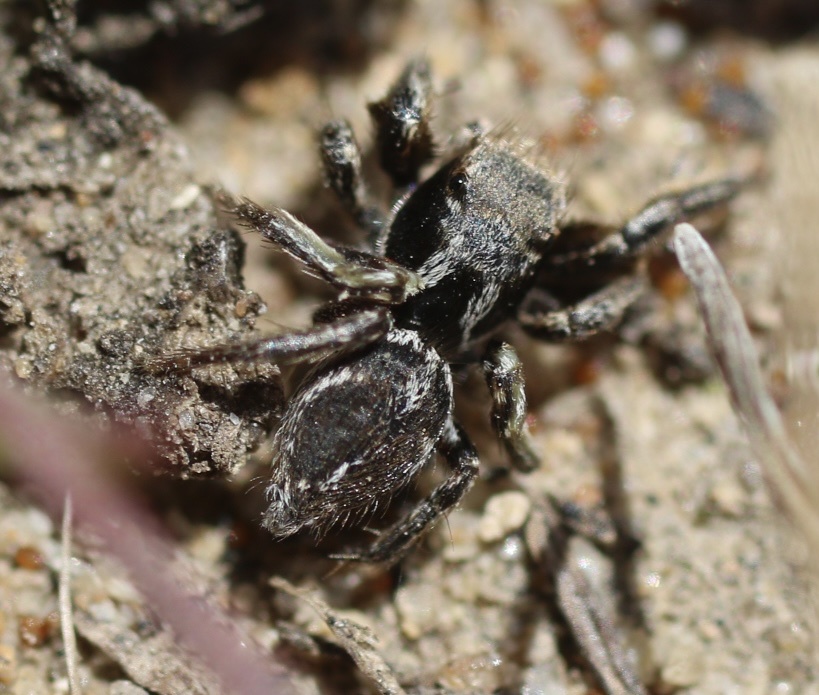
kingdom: Animalia
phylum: Arthropoda
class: Arachnida
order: Araneae
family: Salticidae
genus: Habronattus
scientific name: Habronattus klauseri
